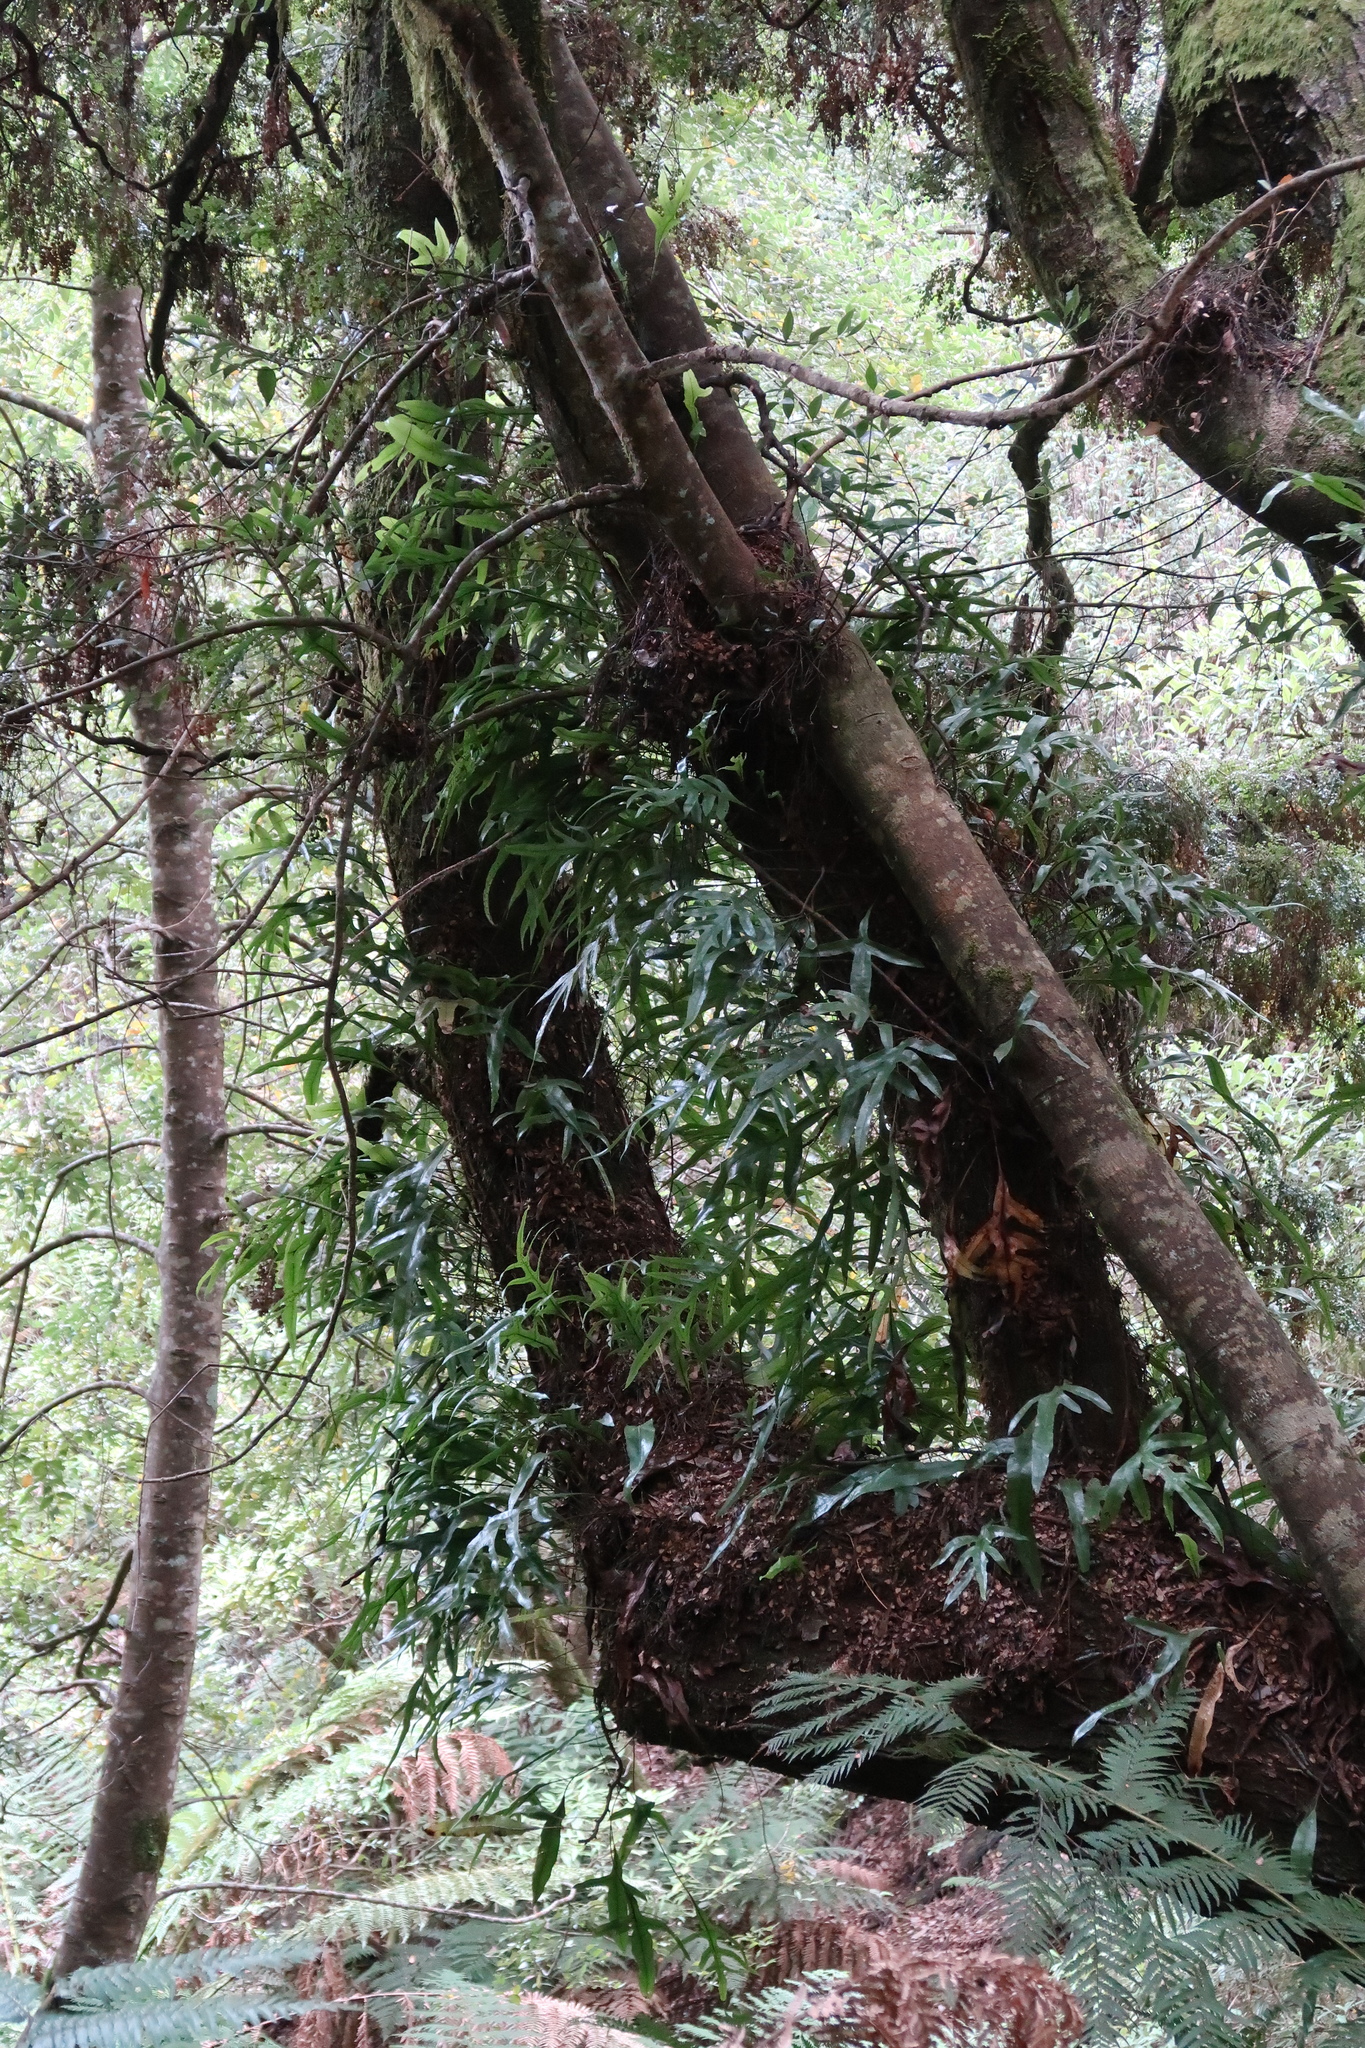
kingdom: Plantae
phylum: Tracheophyta
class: Polypodiopsida
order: Polypodiales
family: Polypodiaceae
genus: Lecanopteris
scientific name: Lecanopteris pustulata
